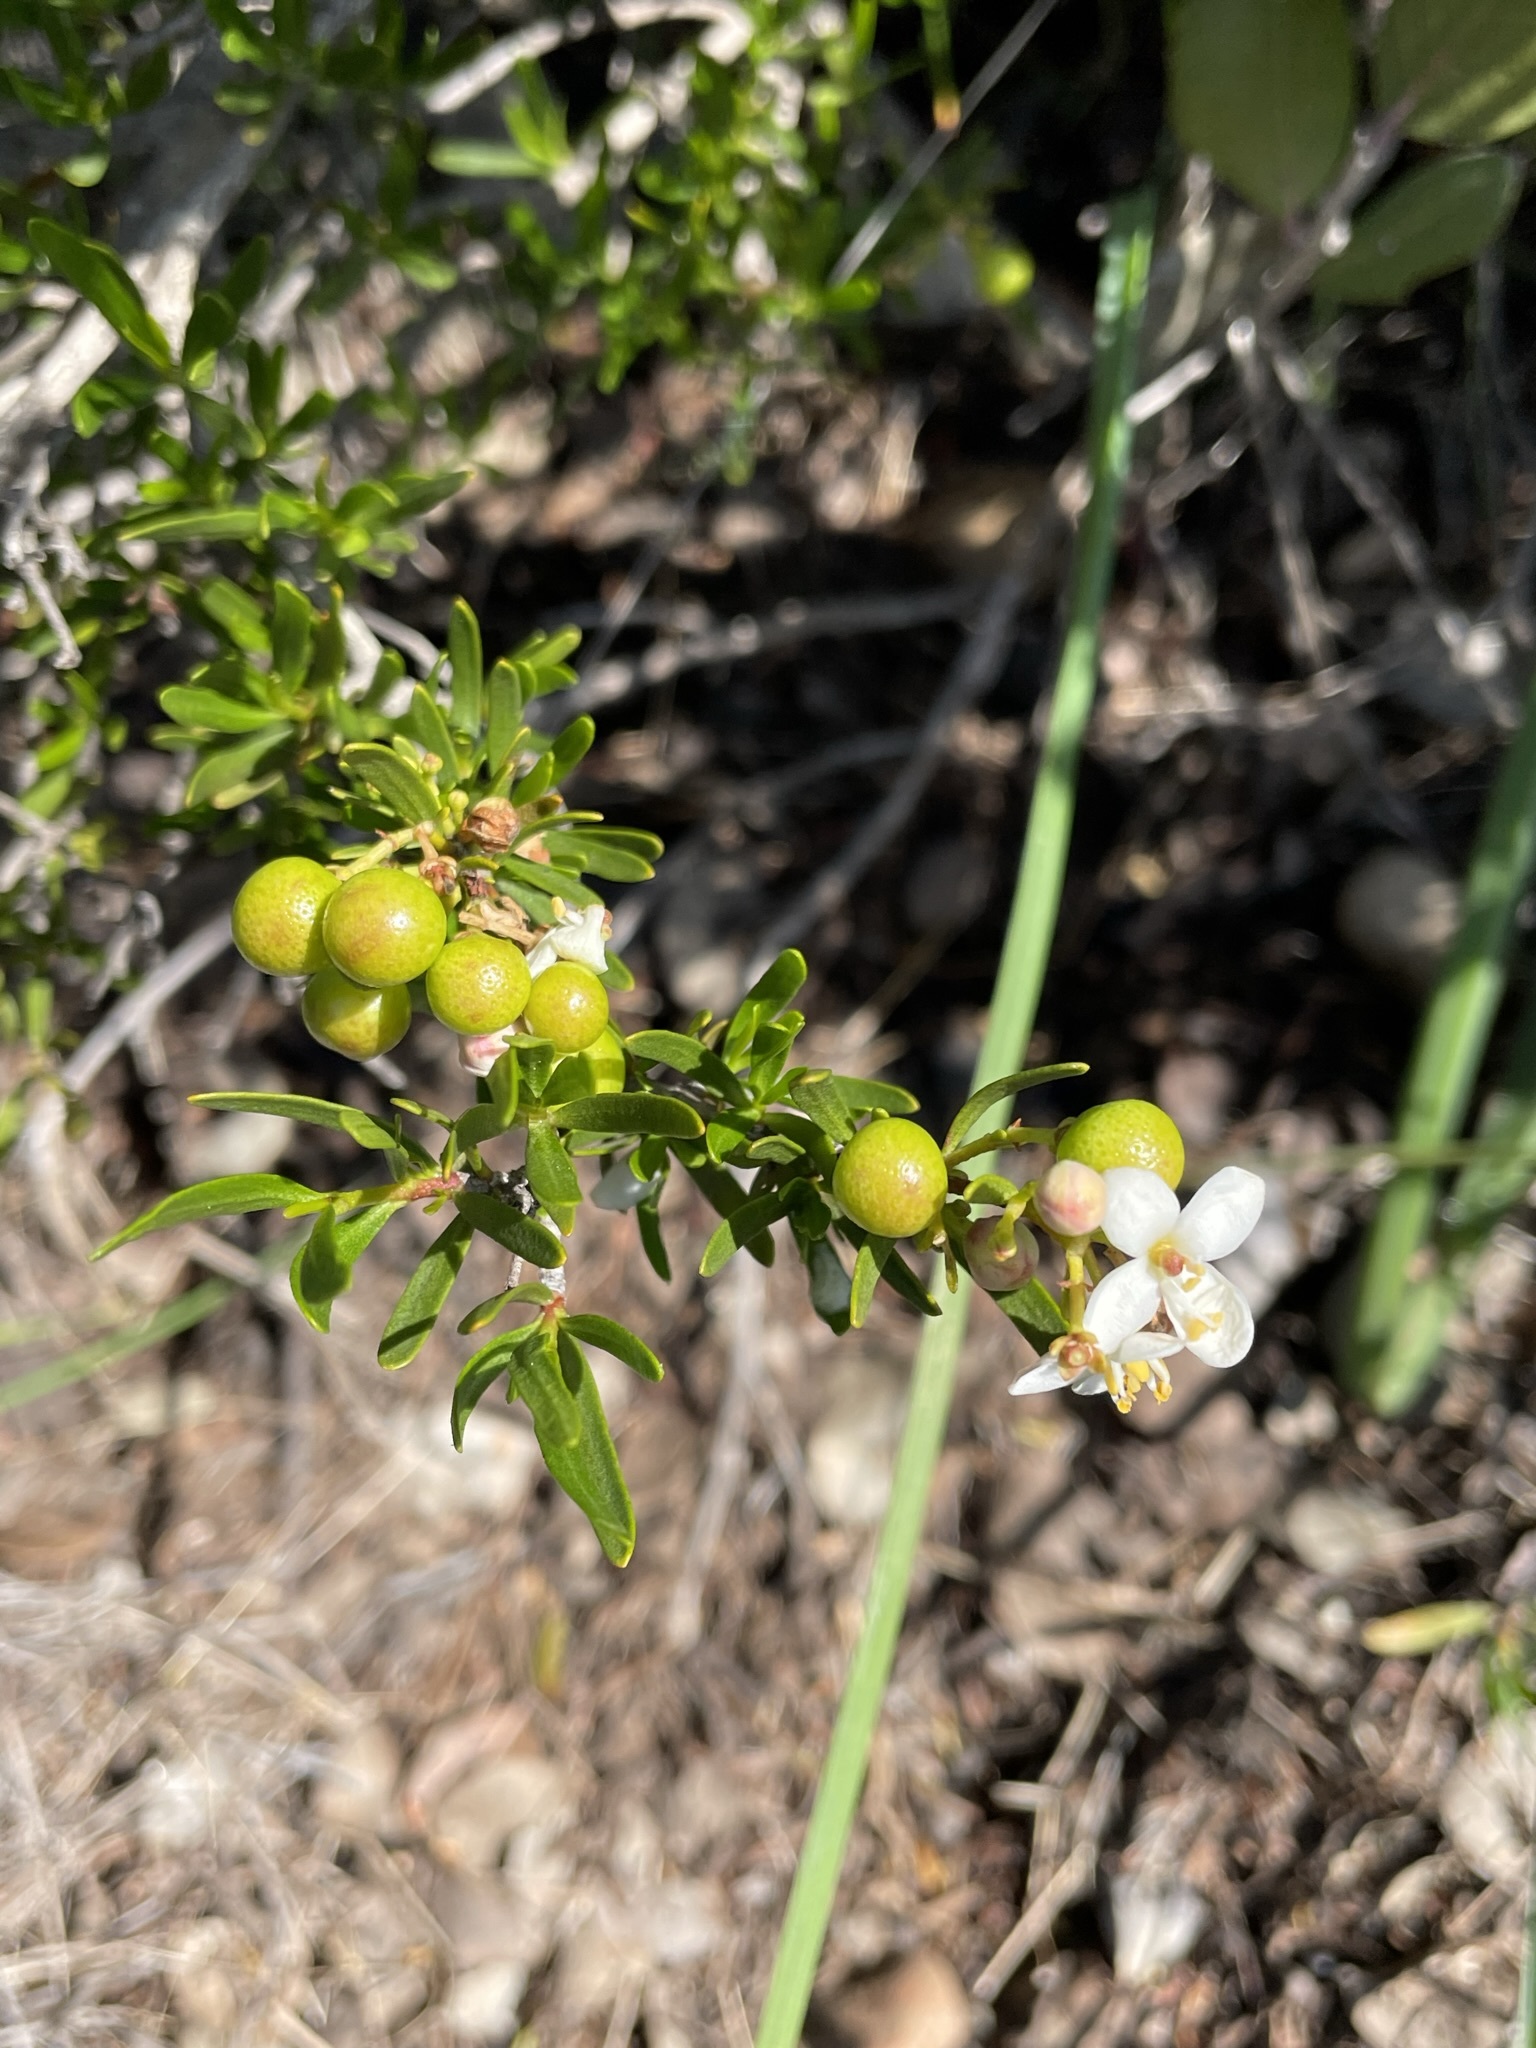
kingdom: Plantae
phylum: Tracheophyta
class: Magnoliopsida
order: Sapindales
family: Rutaceae
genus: Cneoridium
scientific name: Cneoridium dumosum
